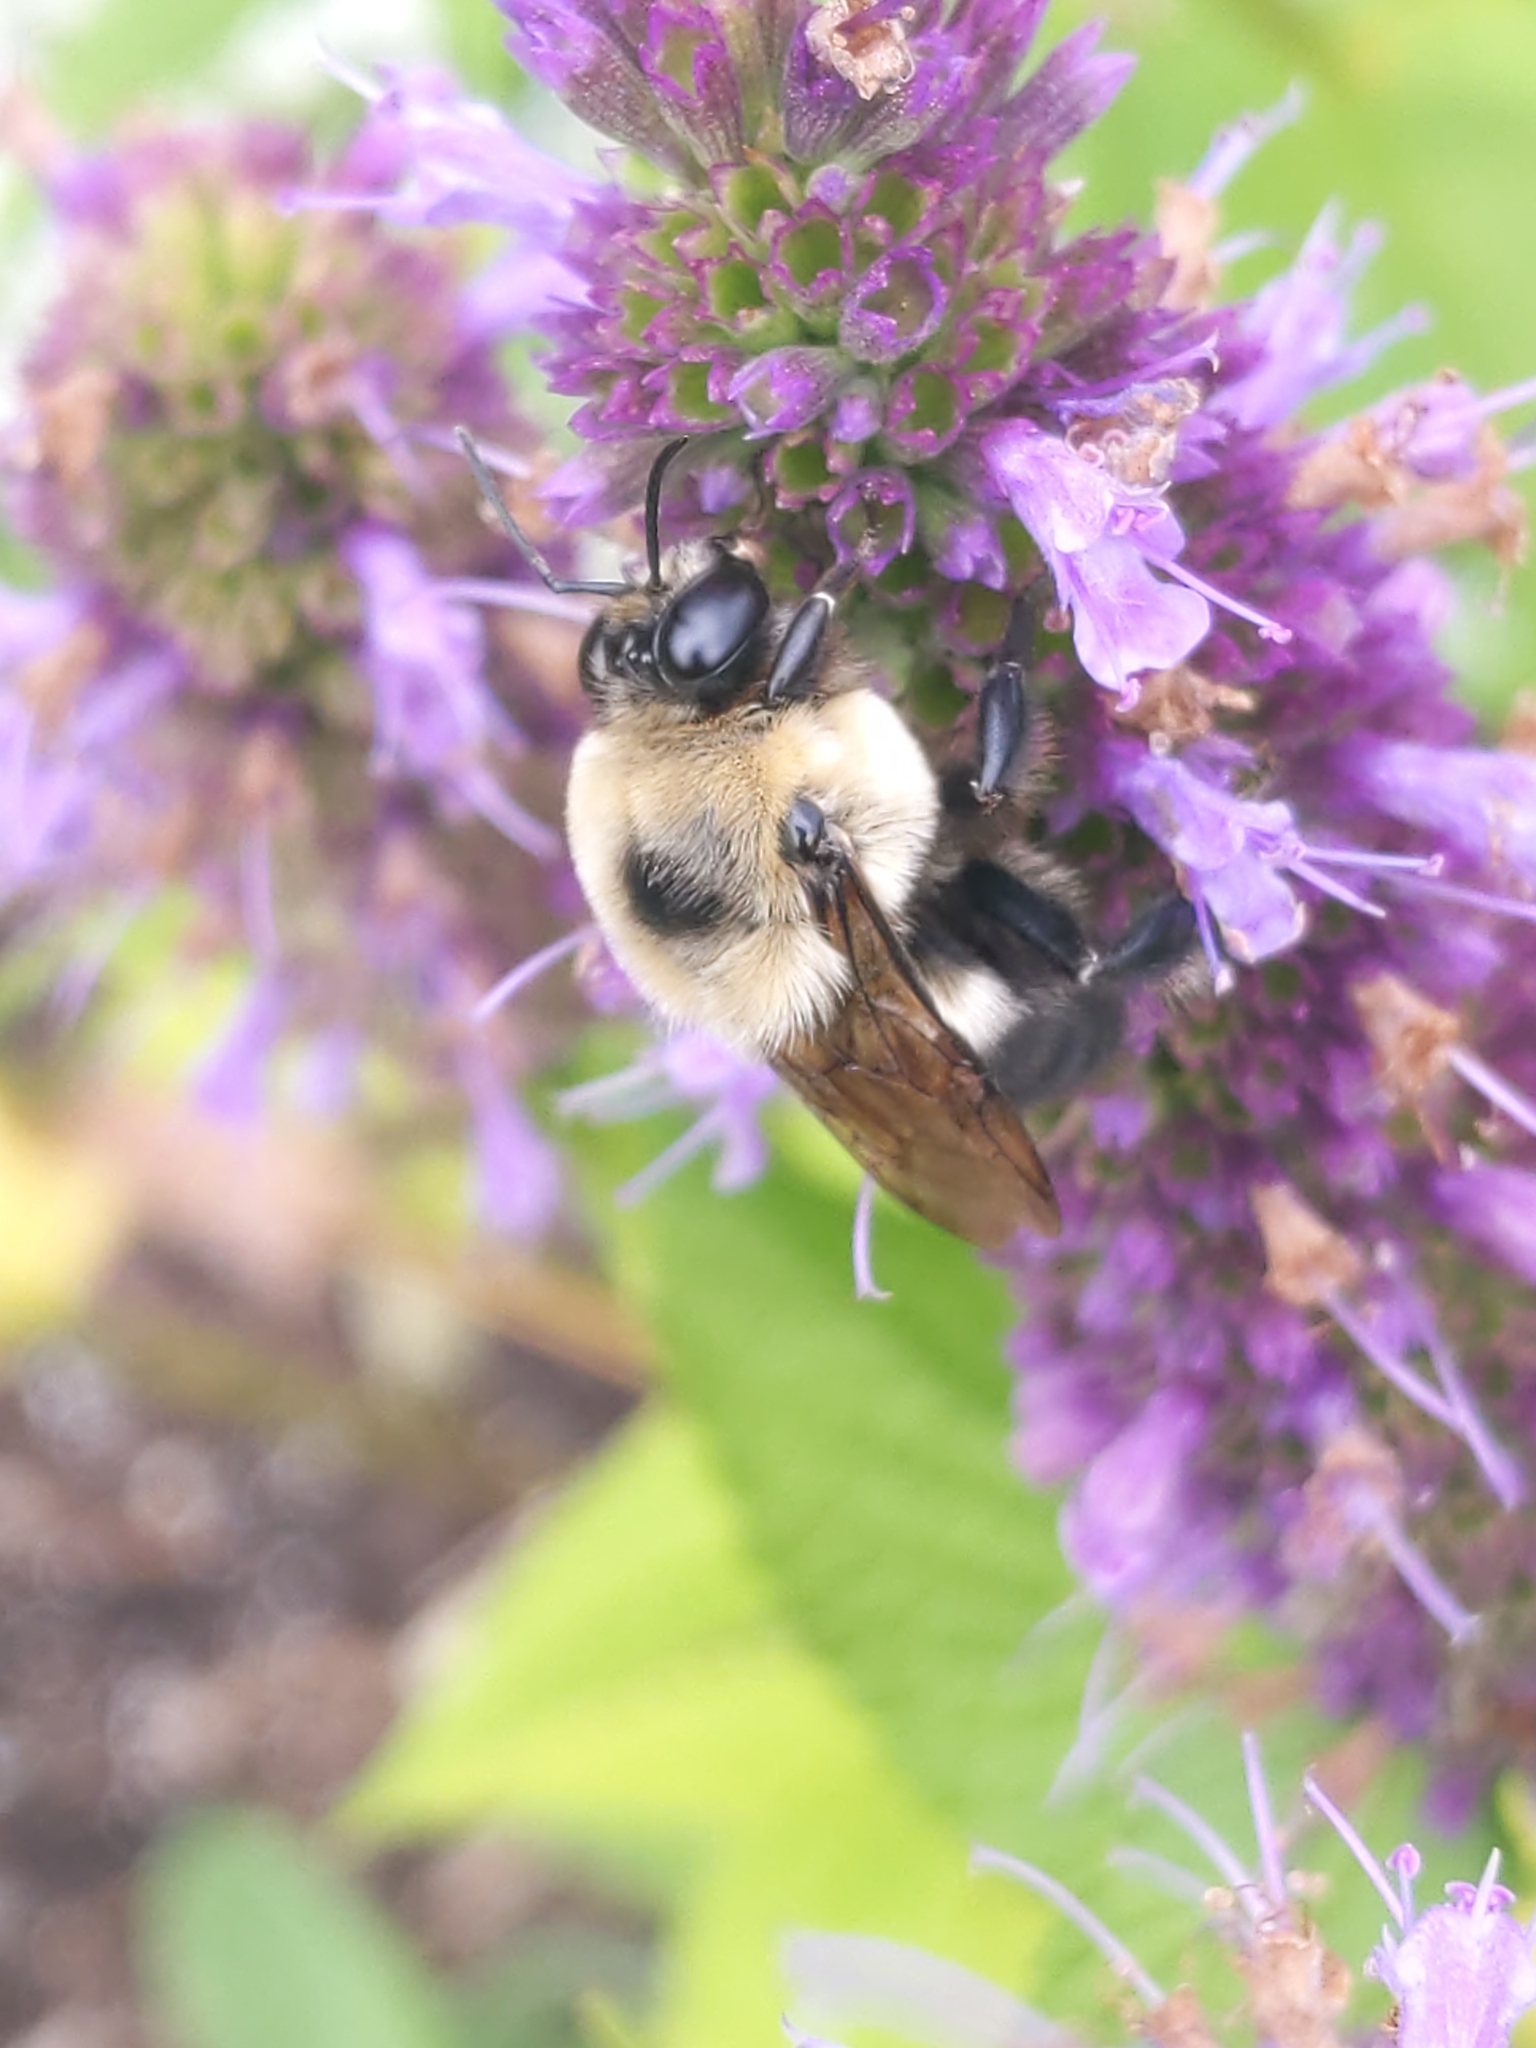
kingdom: Animalia
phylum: Arthropoda
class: Insecta
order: Hymenoptera
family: Apidae
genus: Bombus
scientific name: Bombus griseocollis
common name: Brown-belted bumble bee
